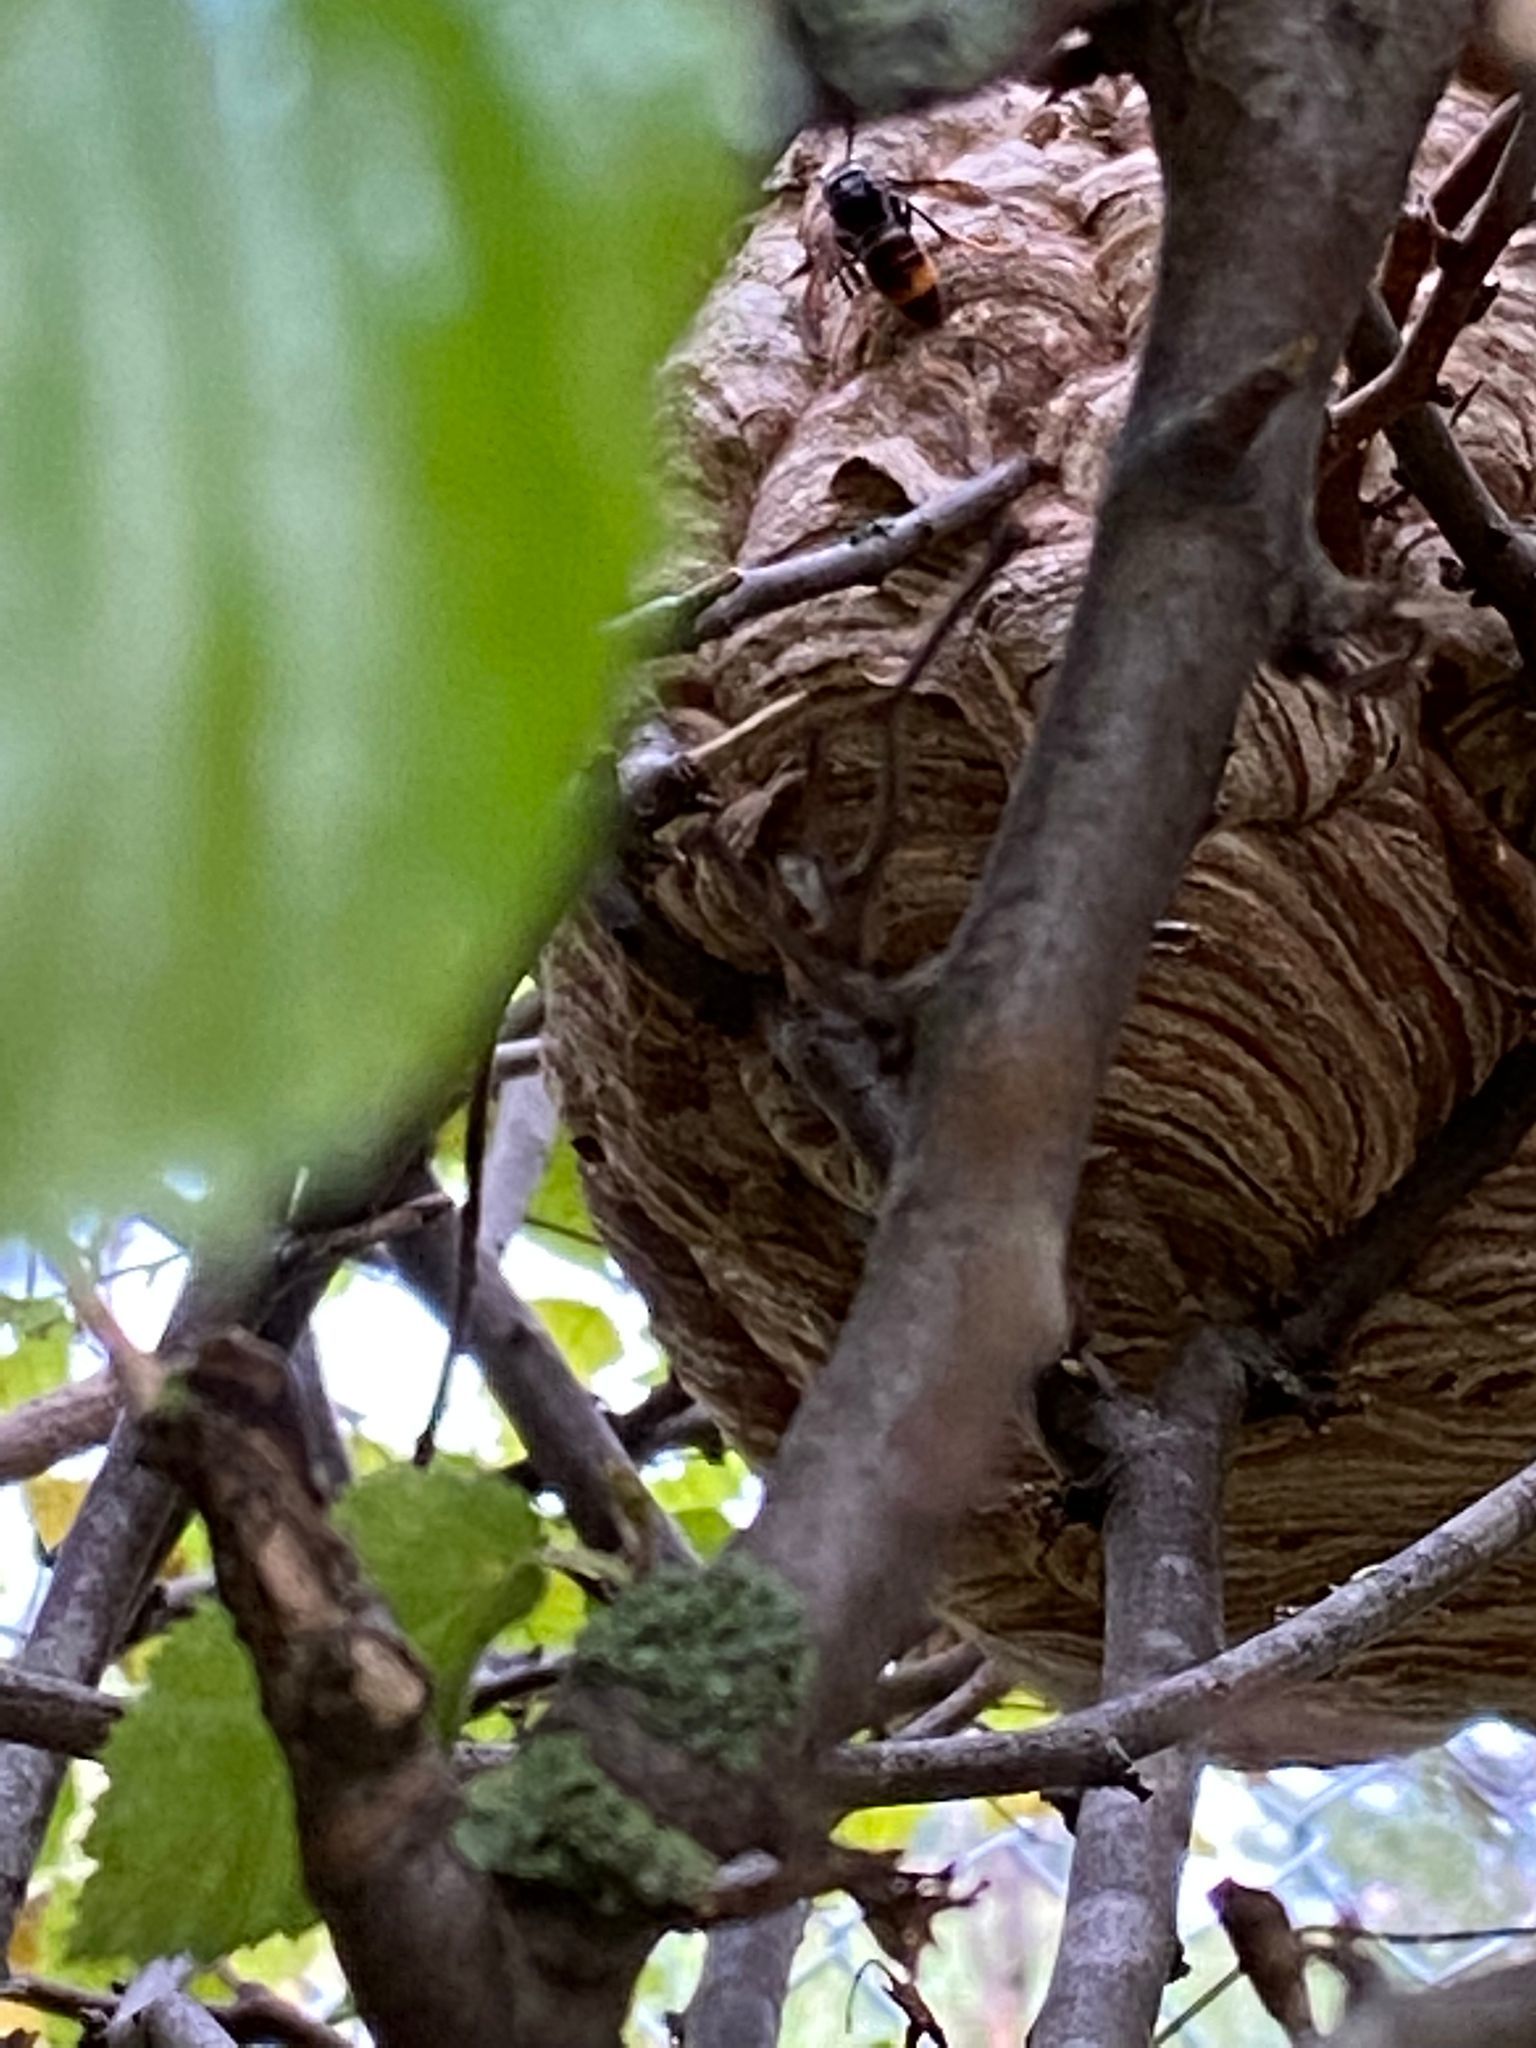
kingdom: Animalia
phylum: Arthropoda
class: Insecta
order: Hymenoptera
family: Vespidae
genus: Vespa
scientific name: Vespa velutina
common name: Asian hornet
